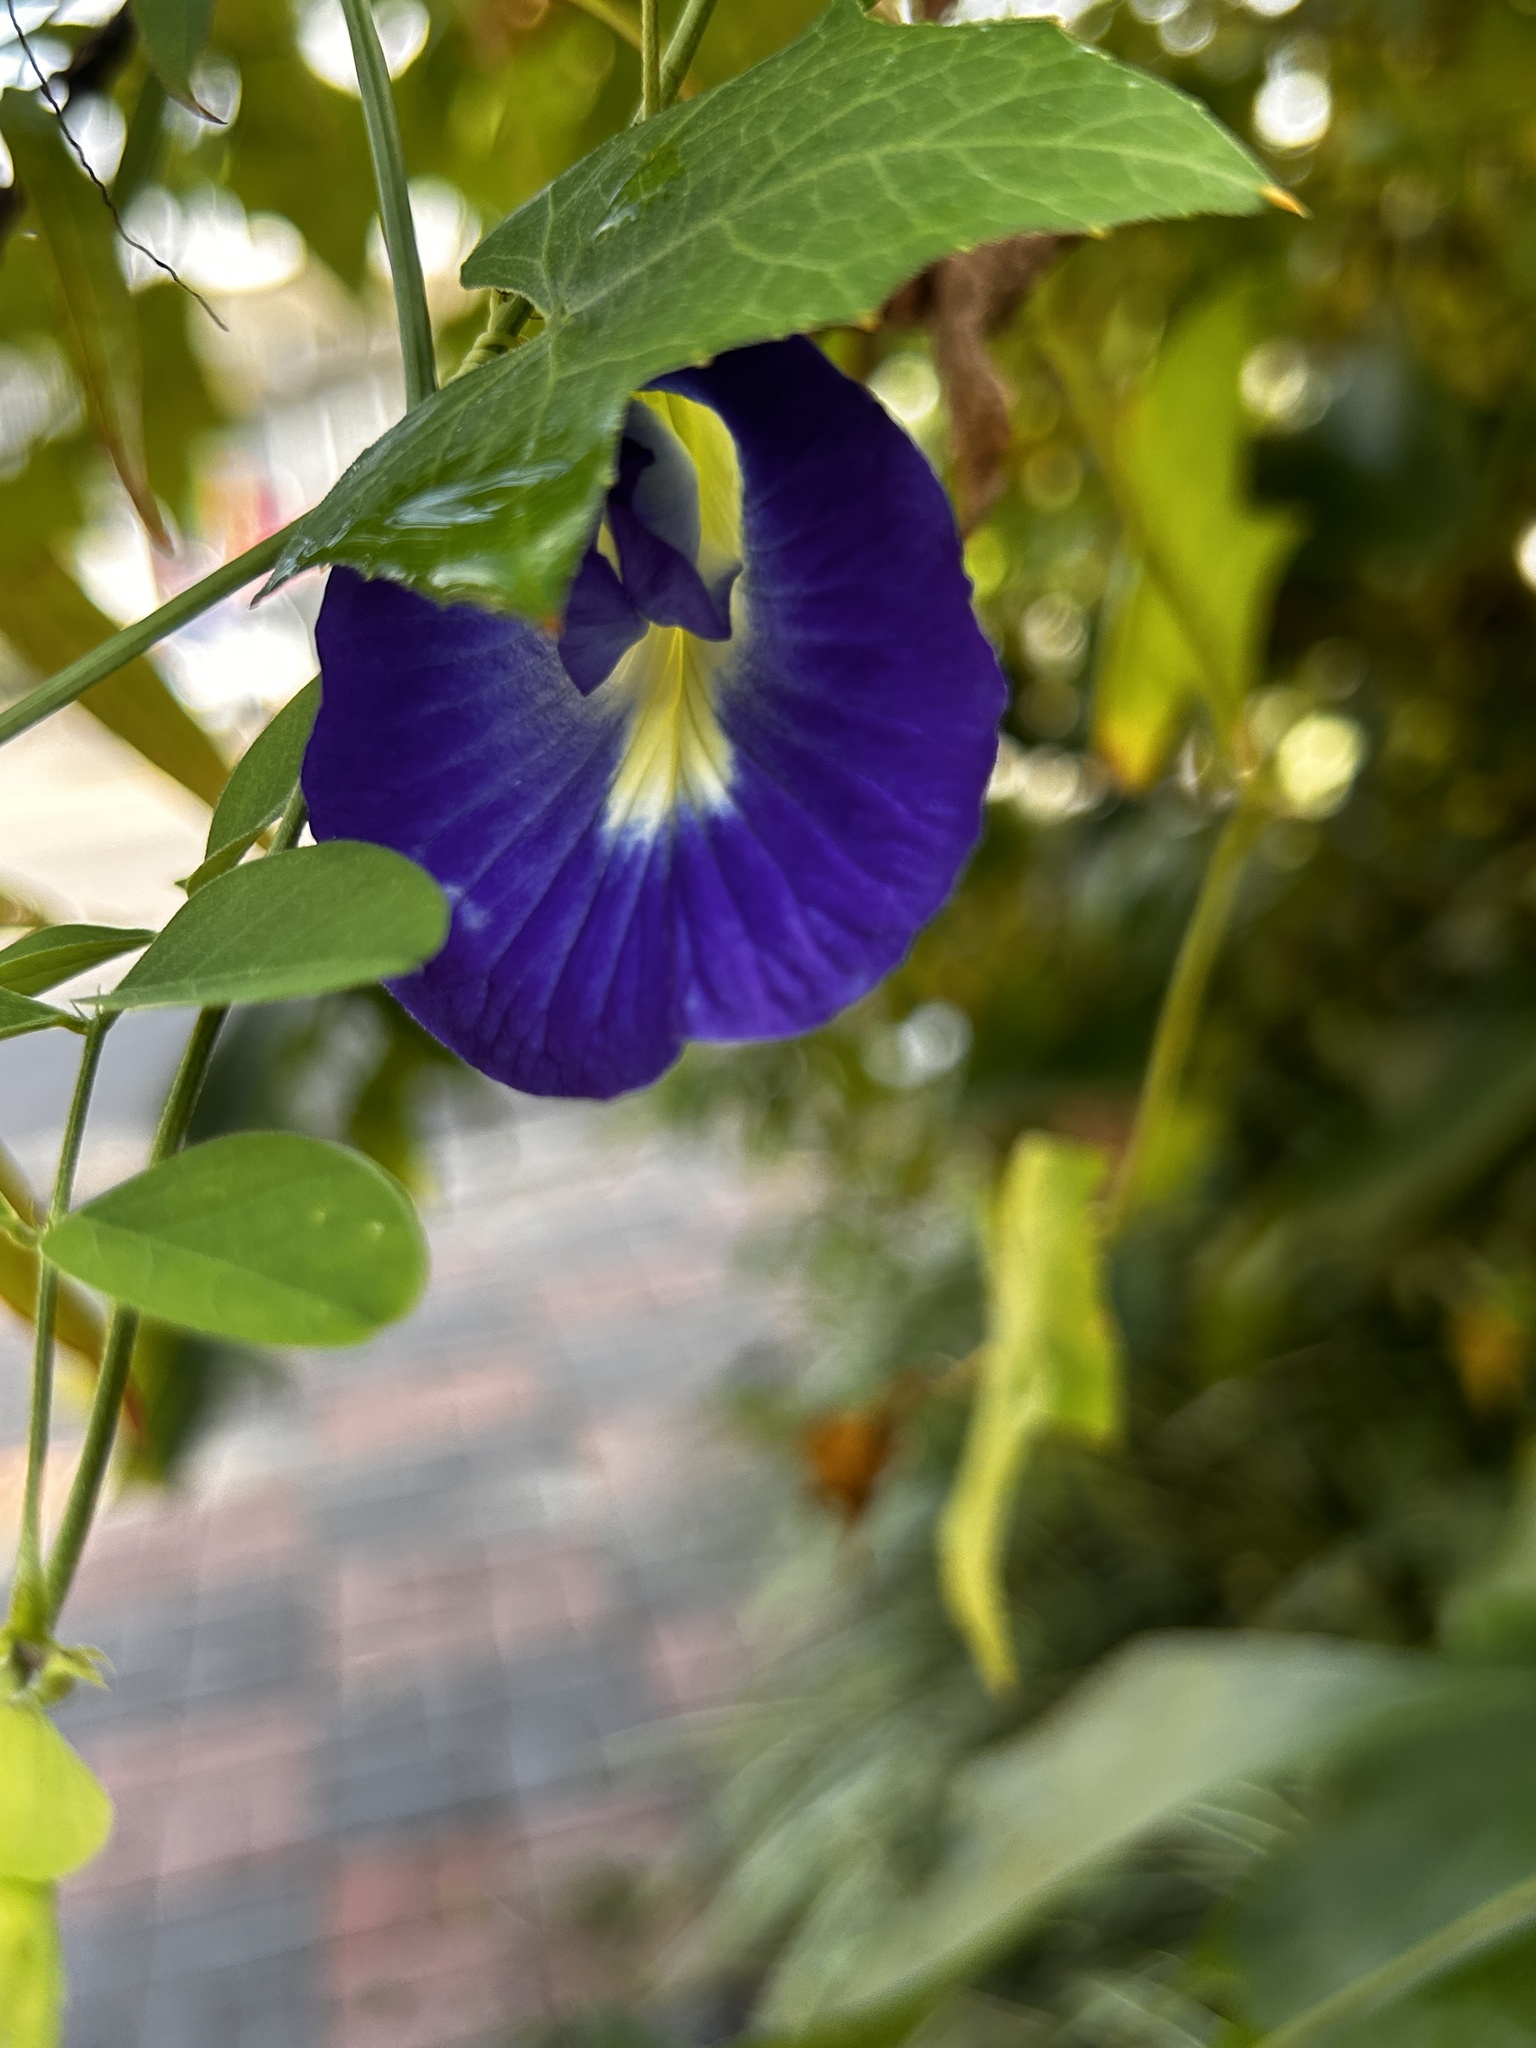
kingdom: Plantae
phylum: Tracheophyta
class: Magnoliopsida
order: Fabales
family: Fabaceae
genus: Clitoria
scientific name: Clitoria ternatea
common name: Asian pigeonwings
